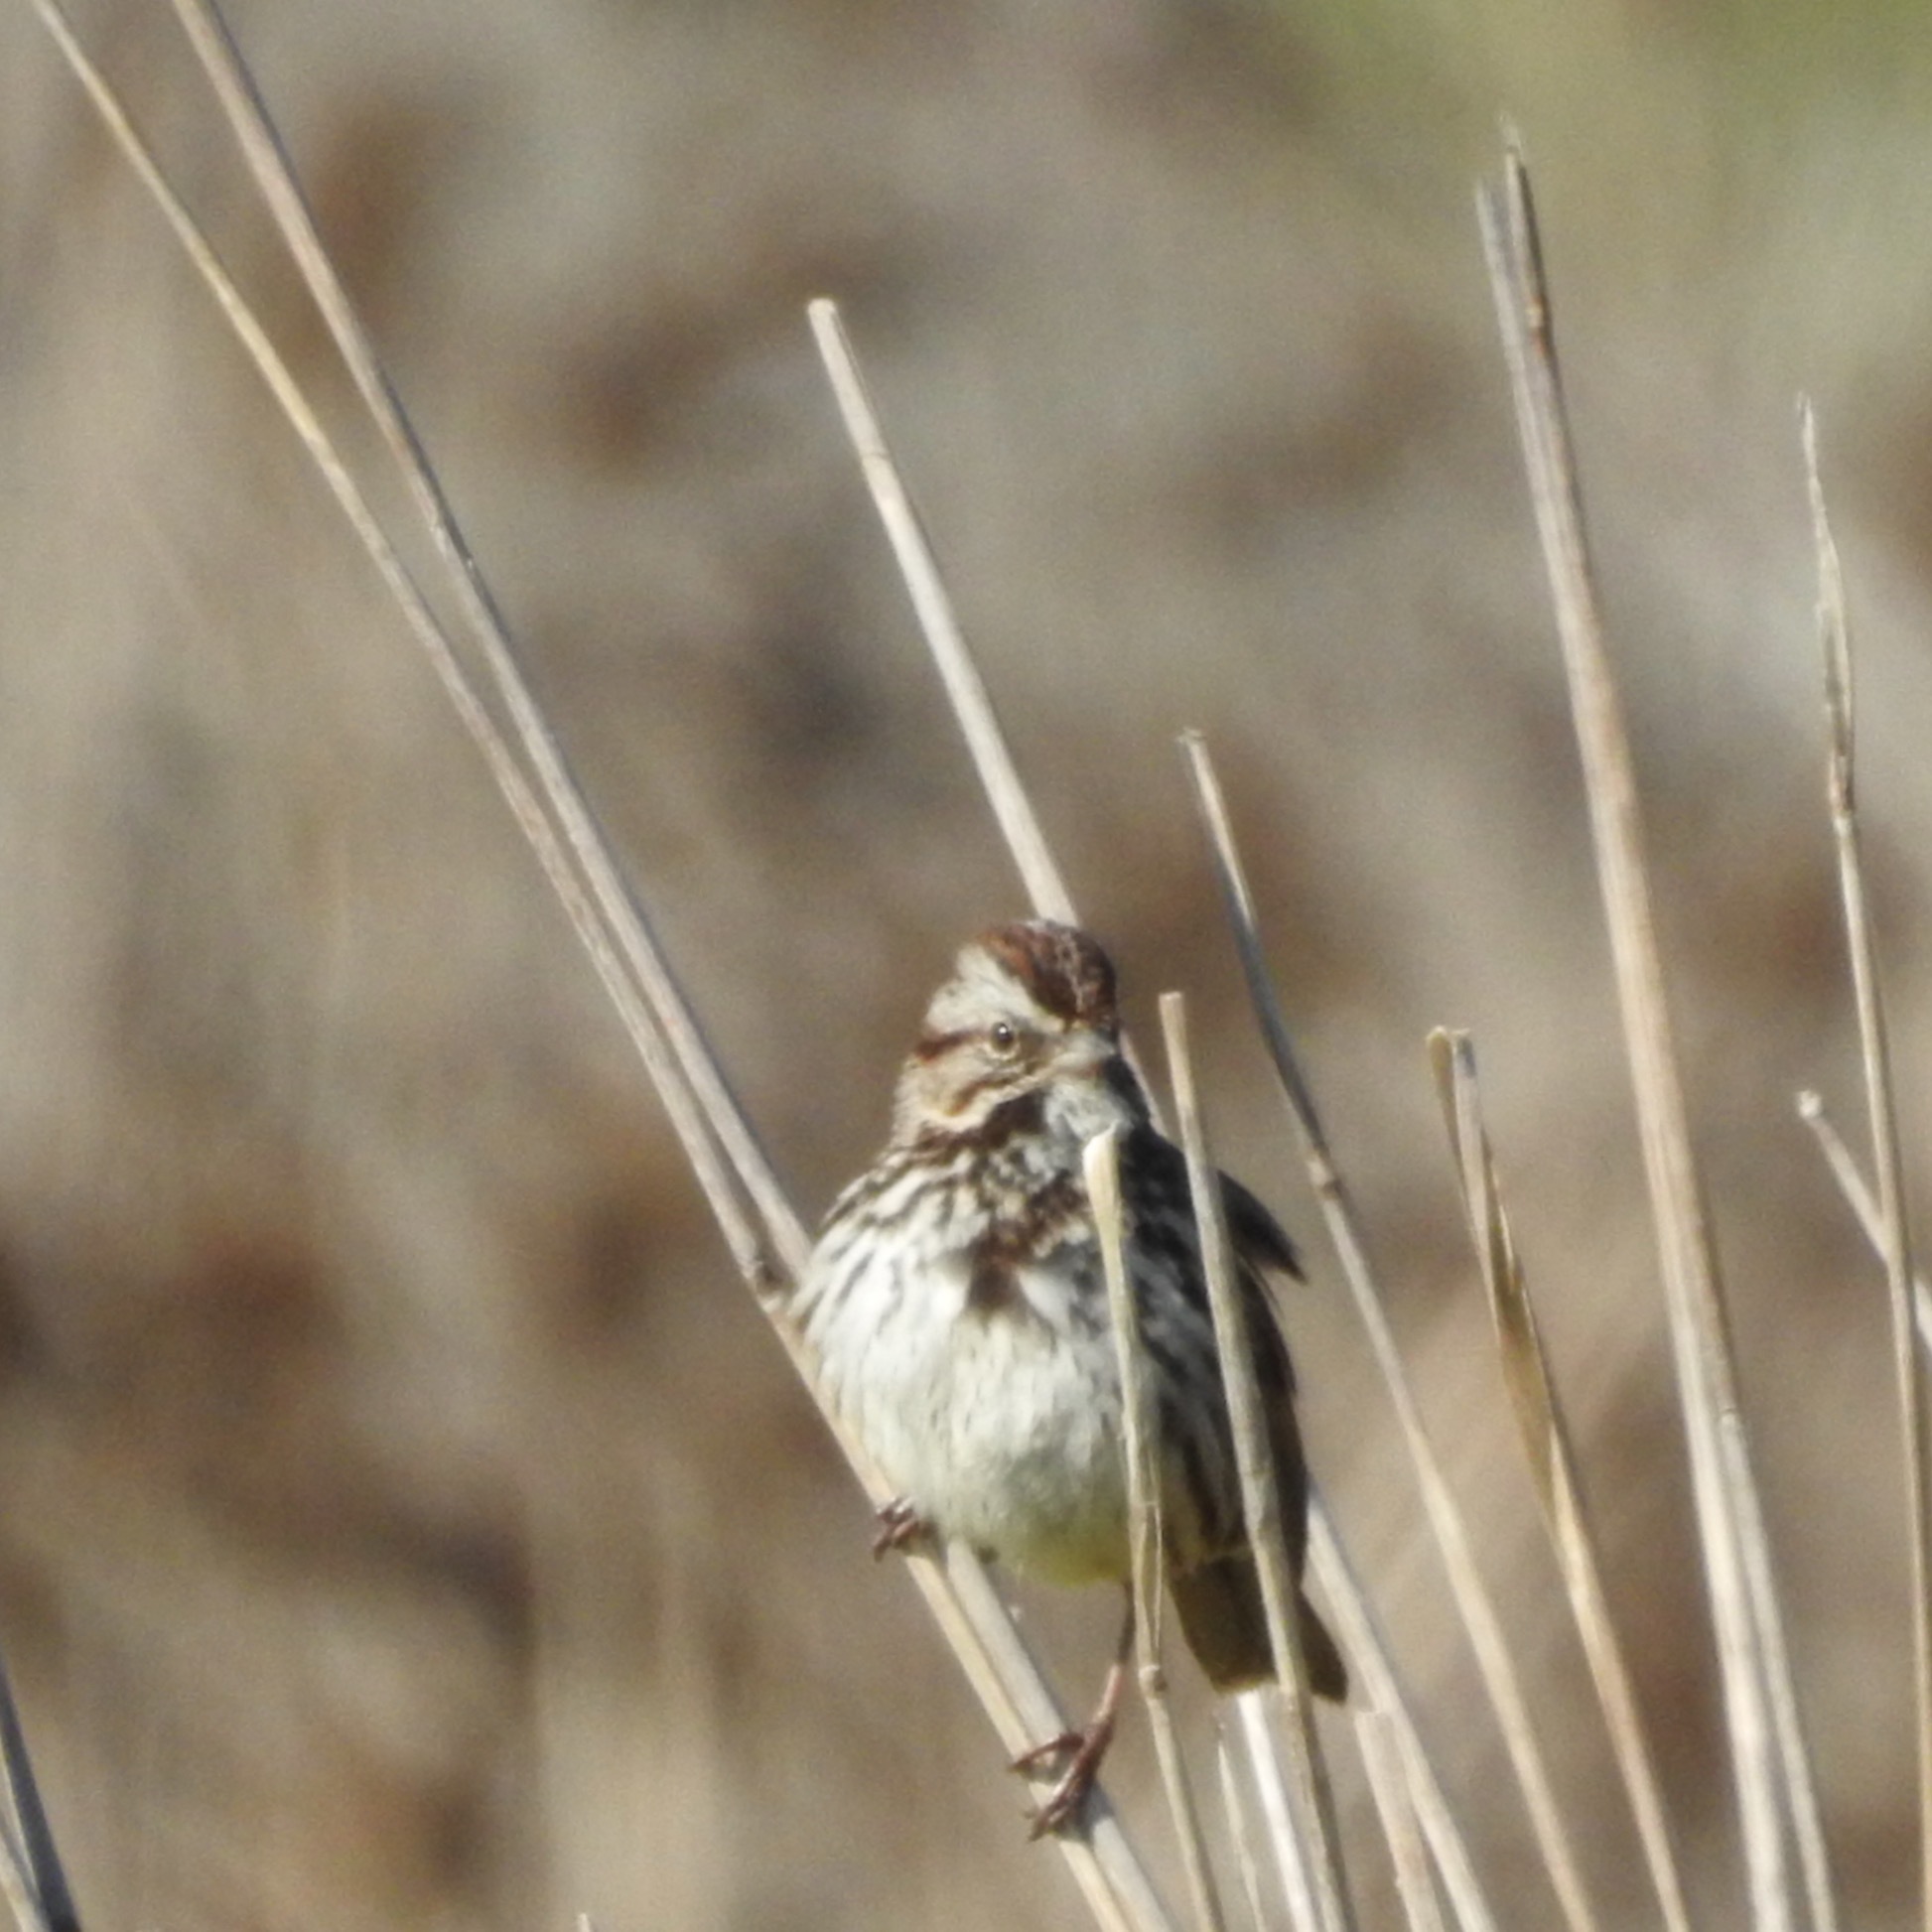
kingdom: Animalia
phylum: Chordata
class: Aves
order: Passeriformes
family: Passerellidae
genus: Melospiza
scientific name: Melospiza melodia
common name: Song sparrow
